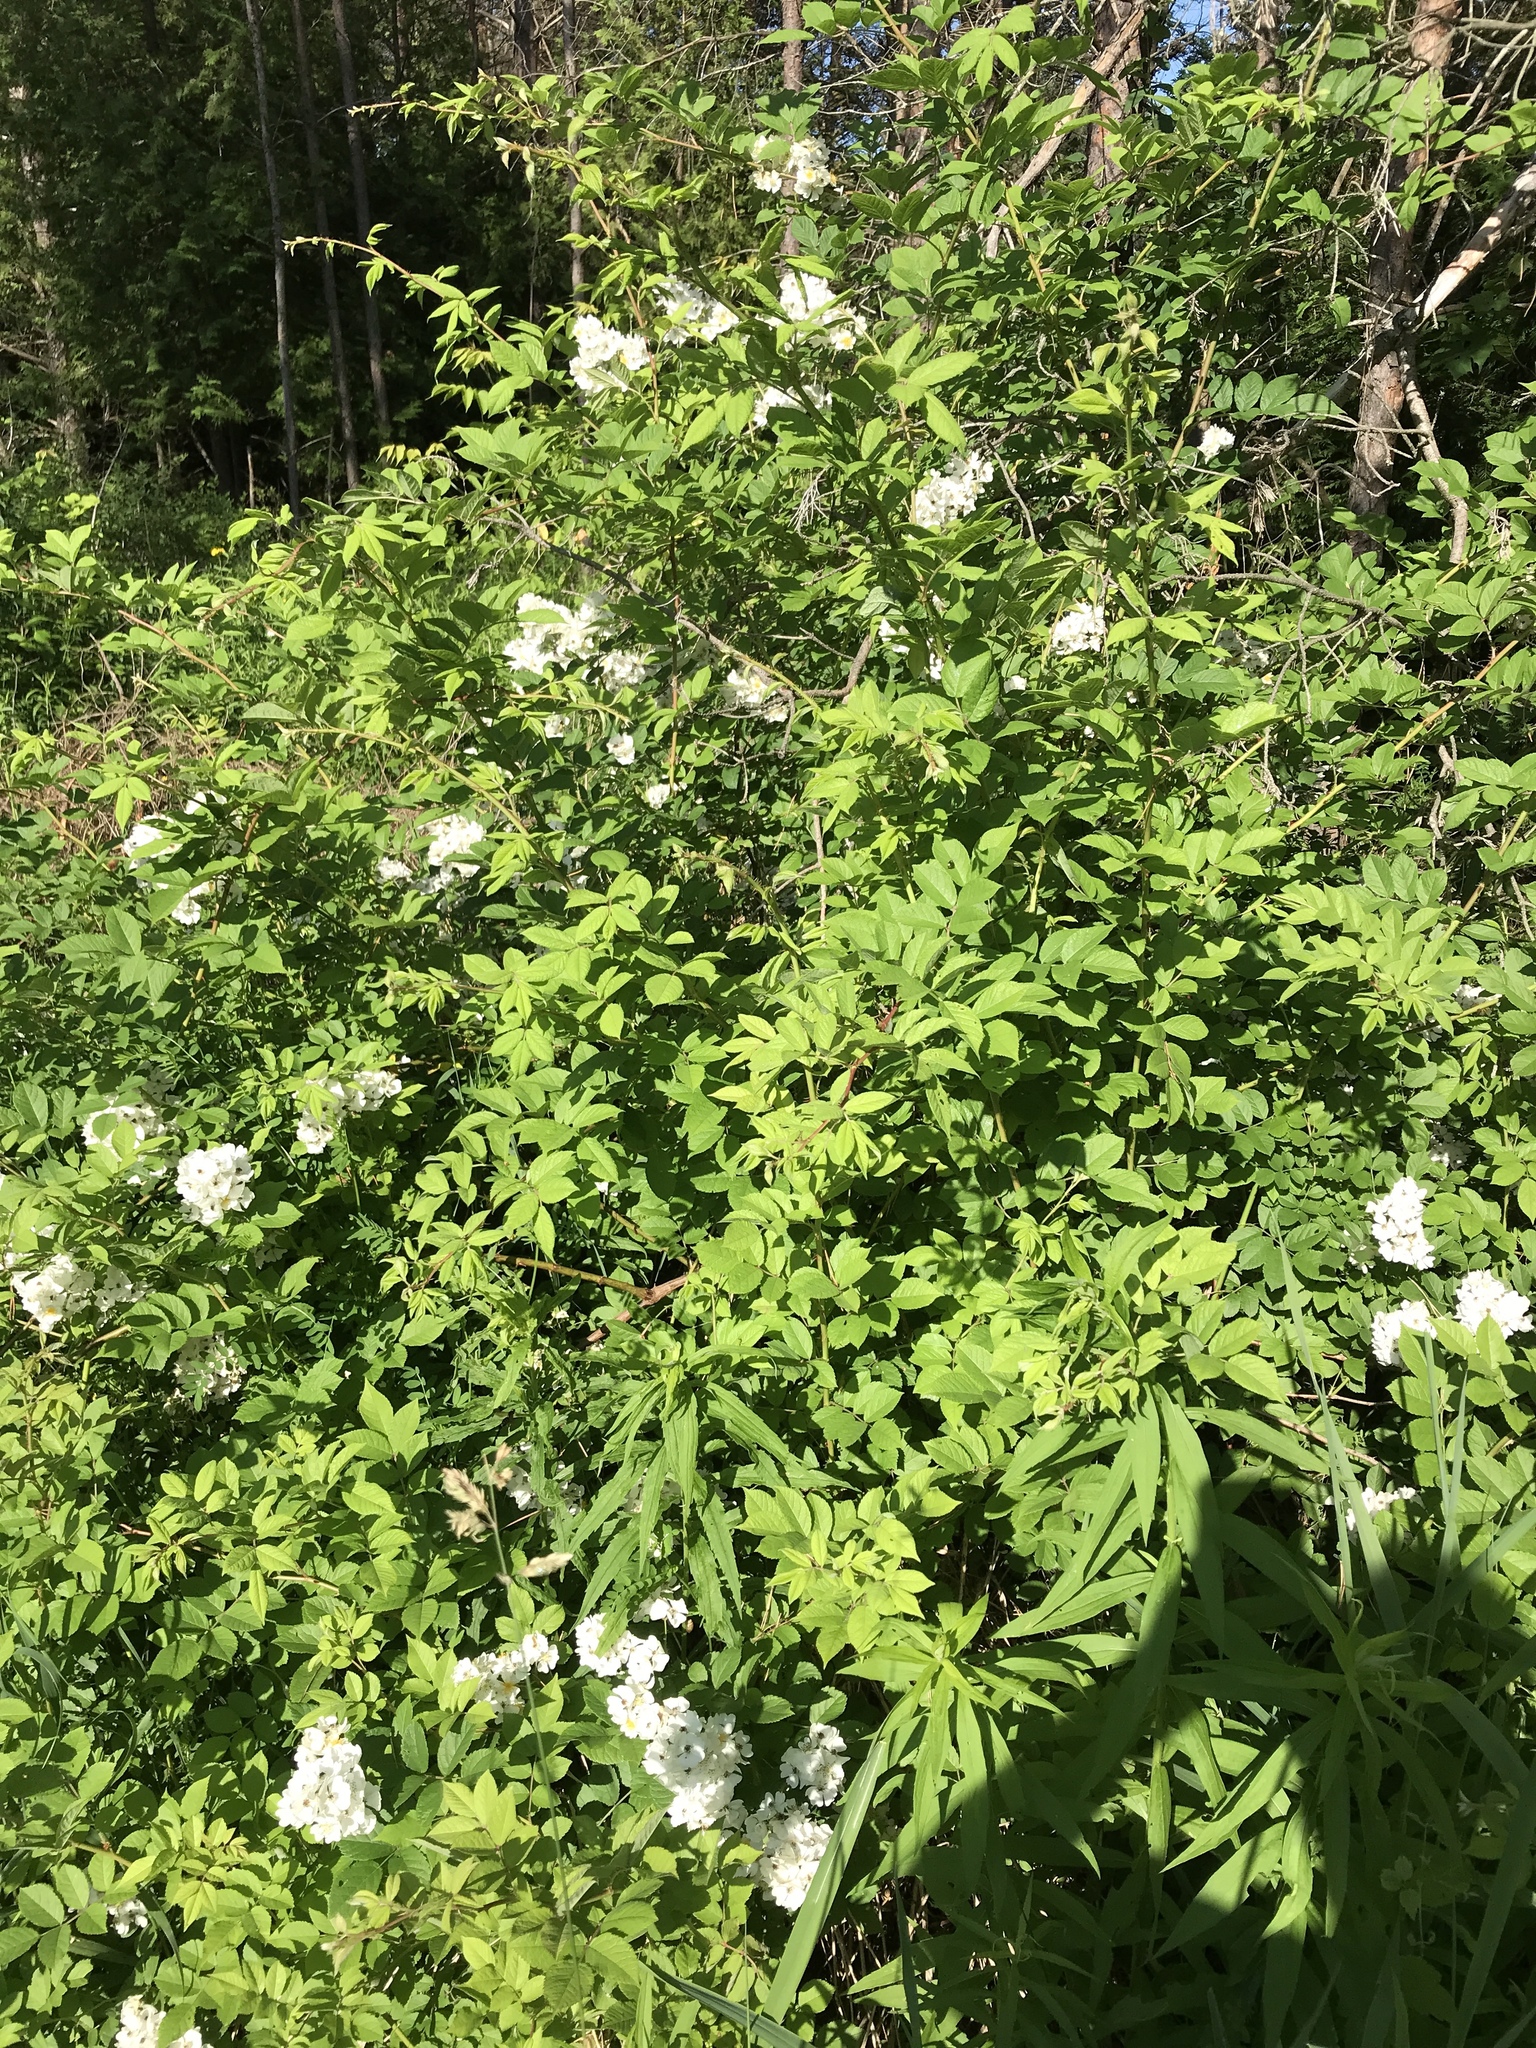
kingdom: Plantae
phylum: Tracheophyta
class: Magnoliopsida
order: Rosales
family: Rosaceae
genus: Rosa
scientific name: Rosa multiflora
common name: Multiflora rose
